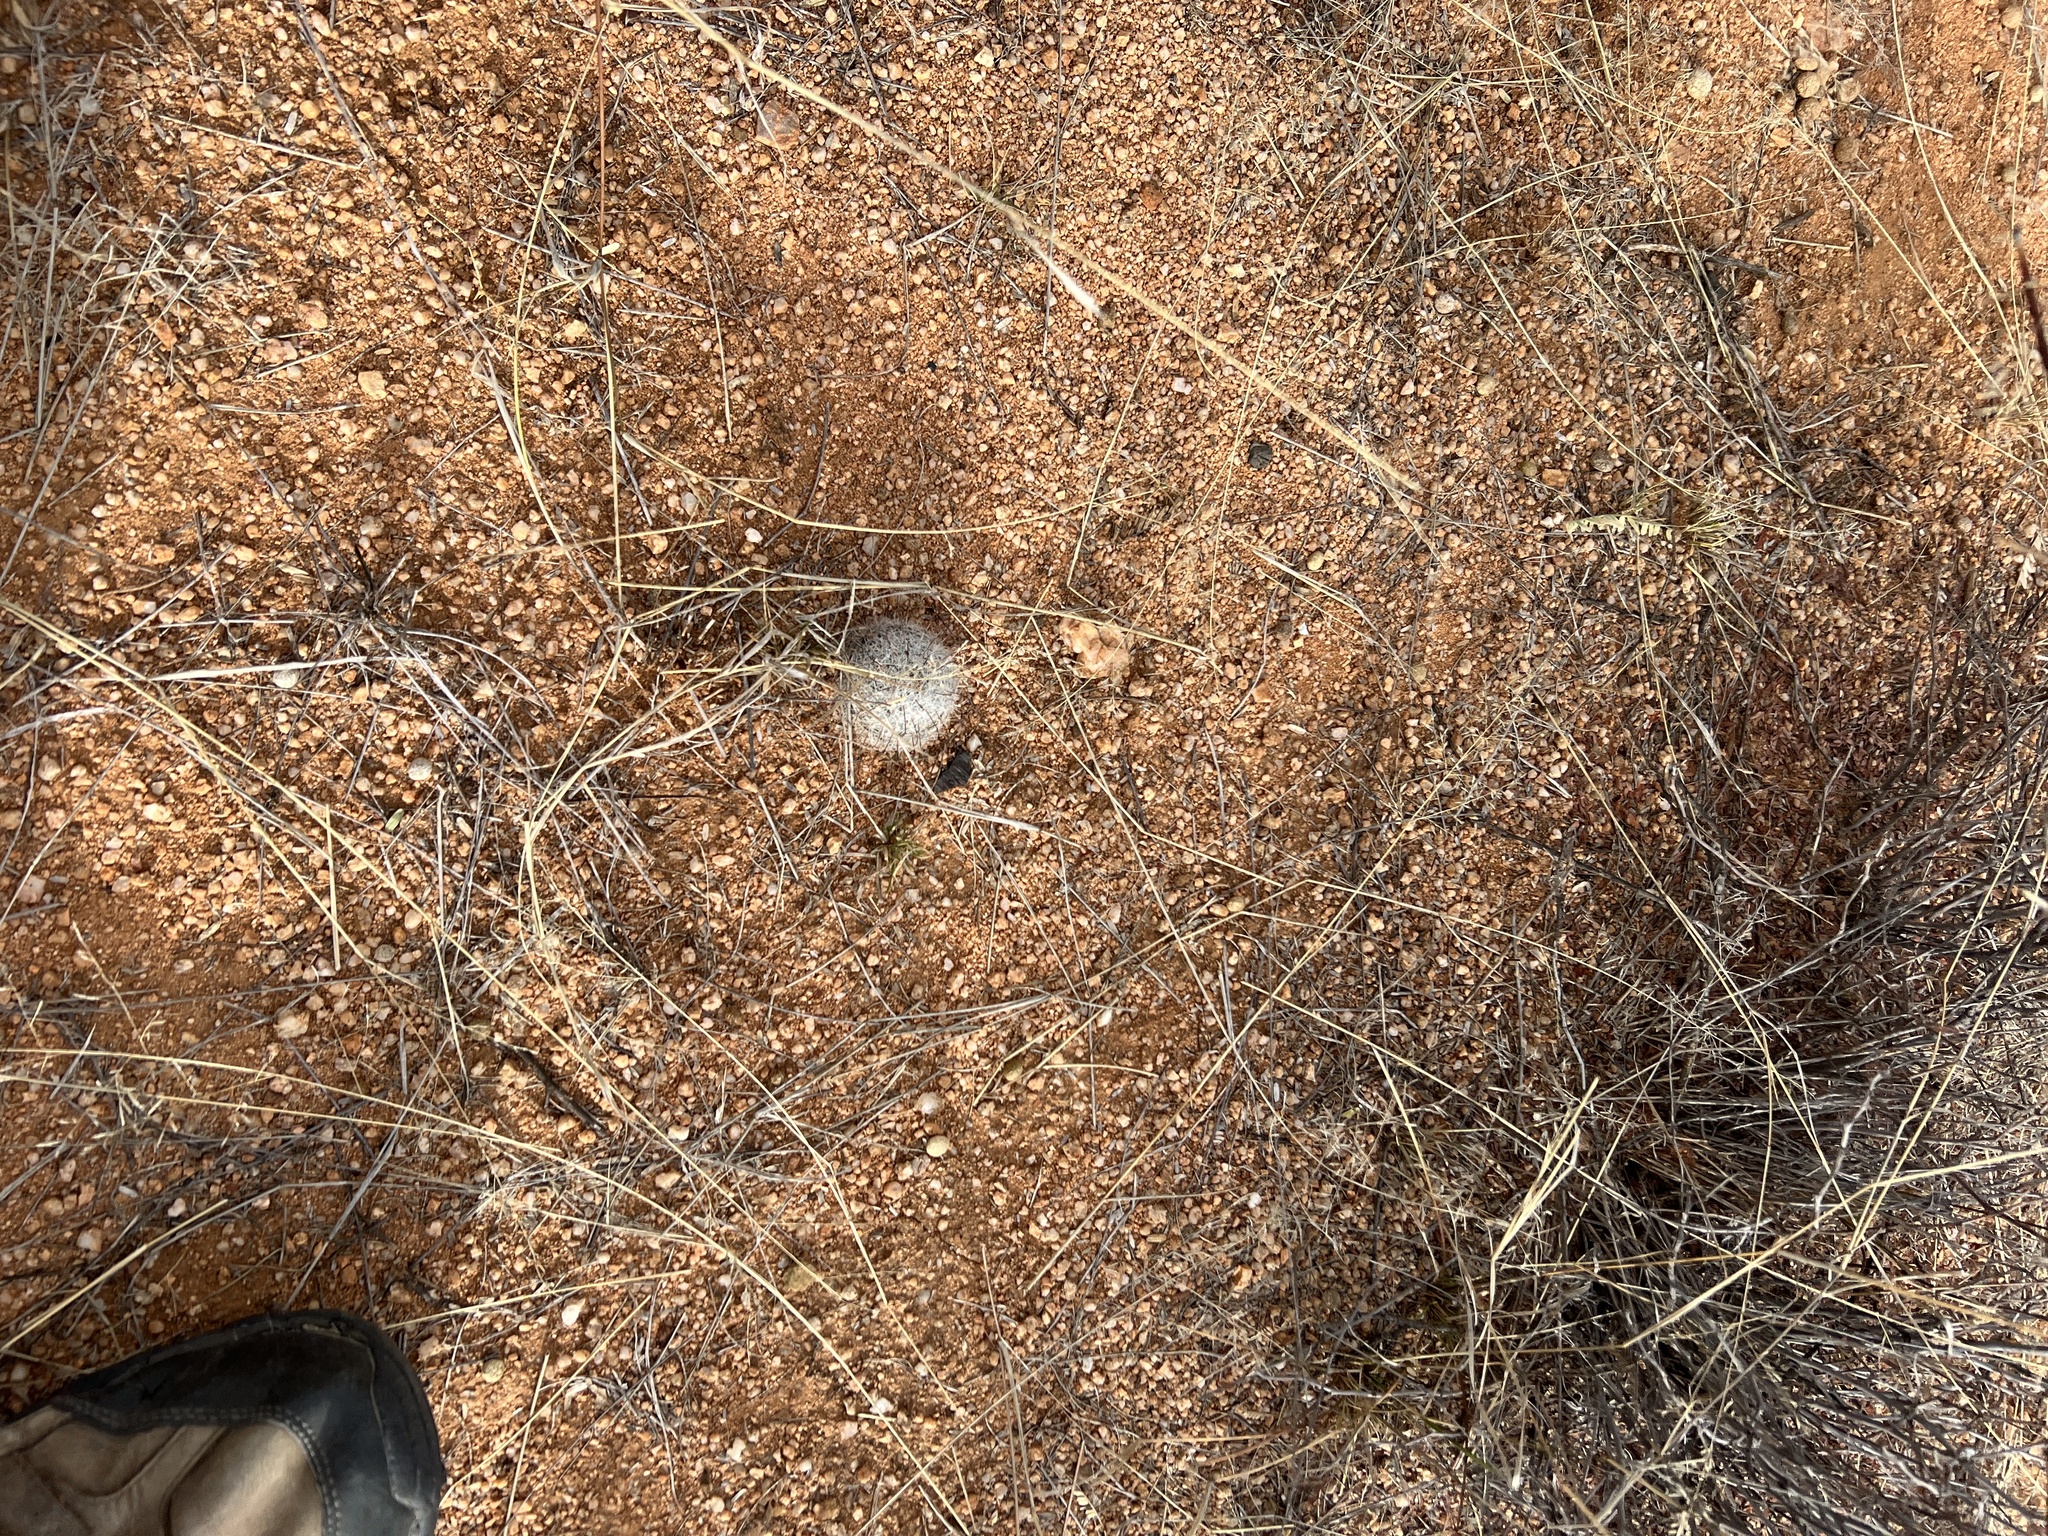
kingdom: Plantae
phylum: Tracheophyta
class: Magnoliopsida
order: Caryophyllales
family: Cactaceae
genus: Cochemiea
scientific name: Cochemiea grahamii
